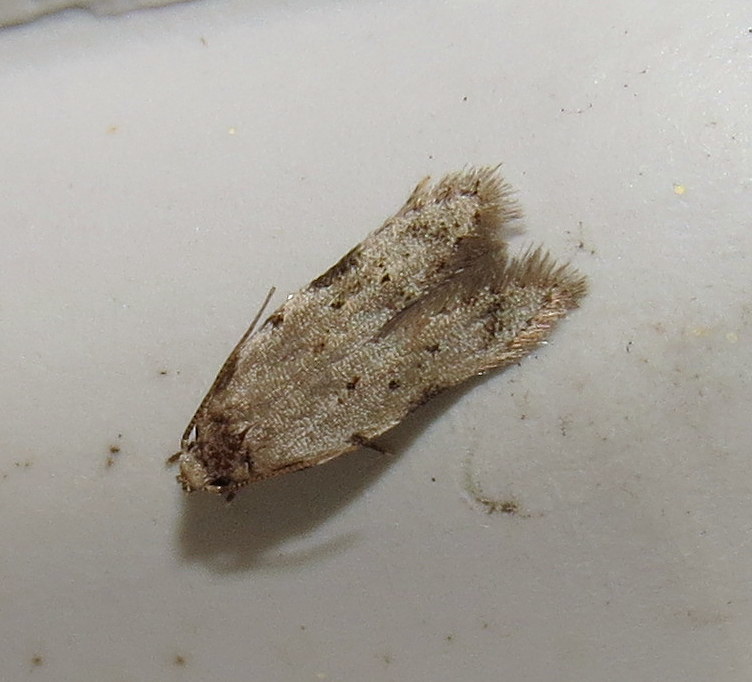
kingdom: Animalia
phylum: Arthropoda
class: Insecta
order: Lepidoptera
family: Autostichidae
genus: Taygete
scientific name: Taygete attributella
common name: Triangle-marked twirler moth
